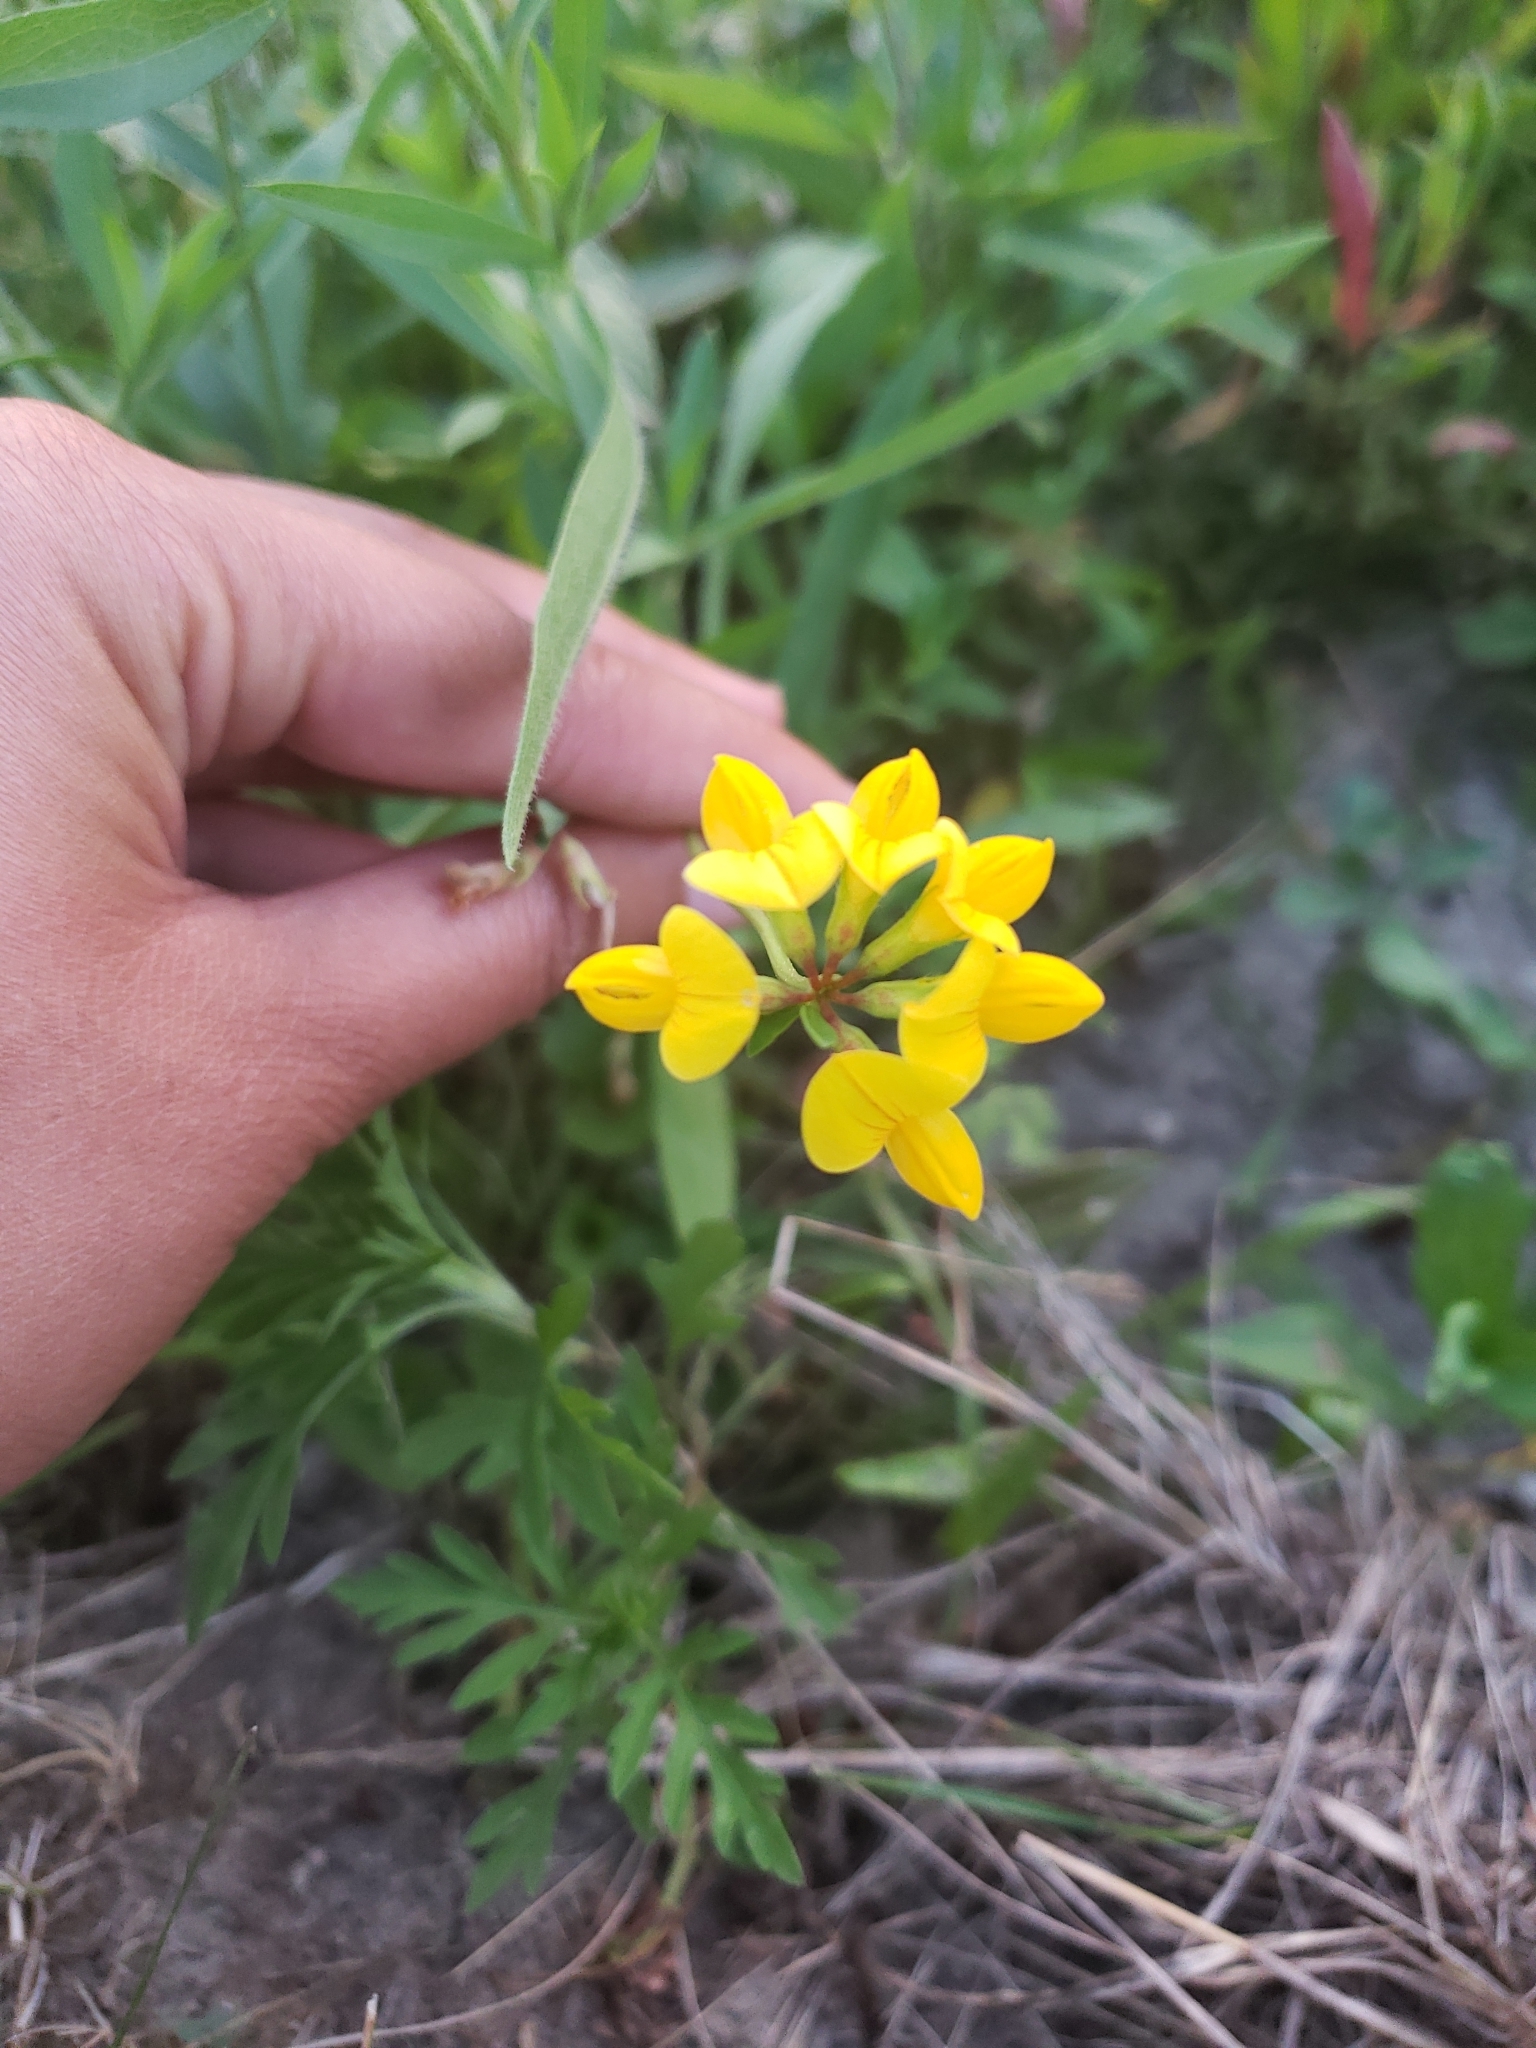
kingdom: Plantae
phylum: Tracheophyta
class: Magnoliopsida
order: Fabales
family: Fabaceae
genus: Lotus
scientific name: Lotus corniculatus
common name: Common bird's-foot-trefoil
